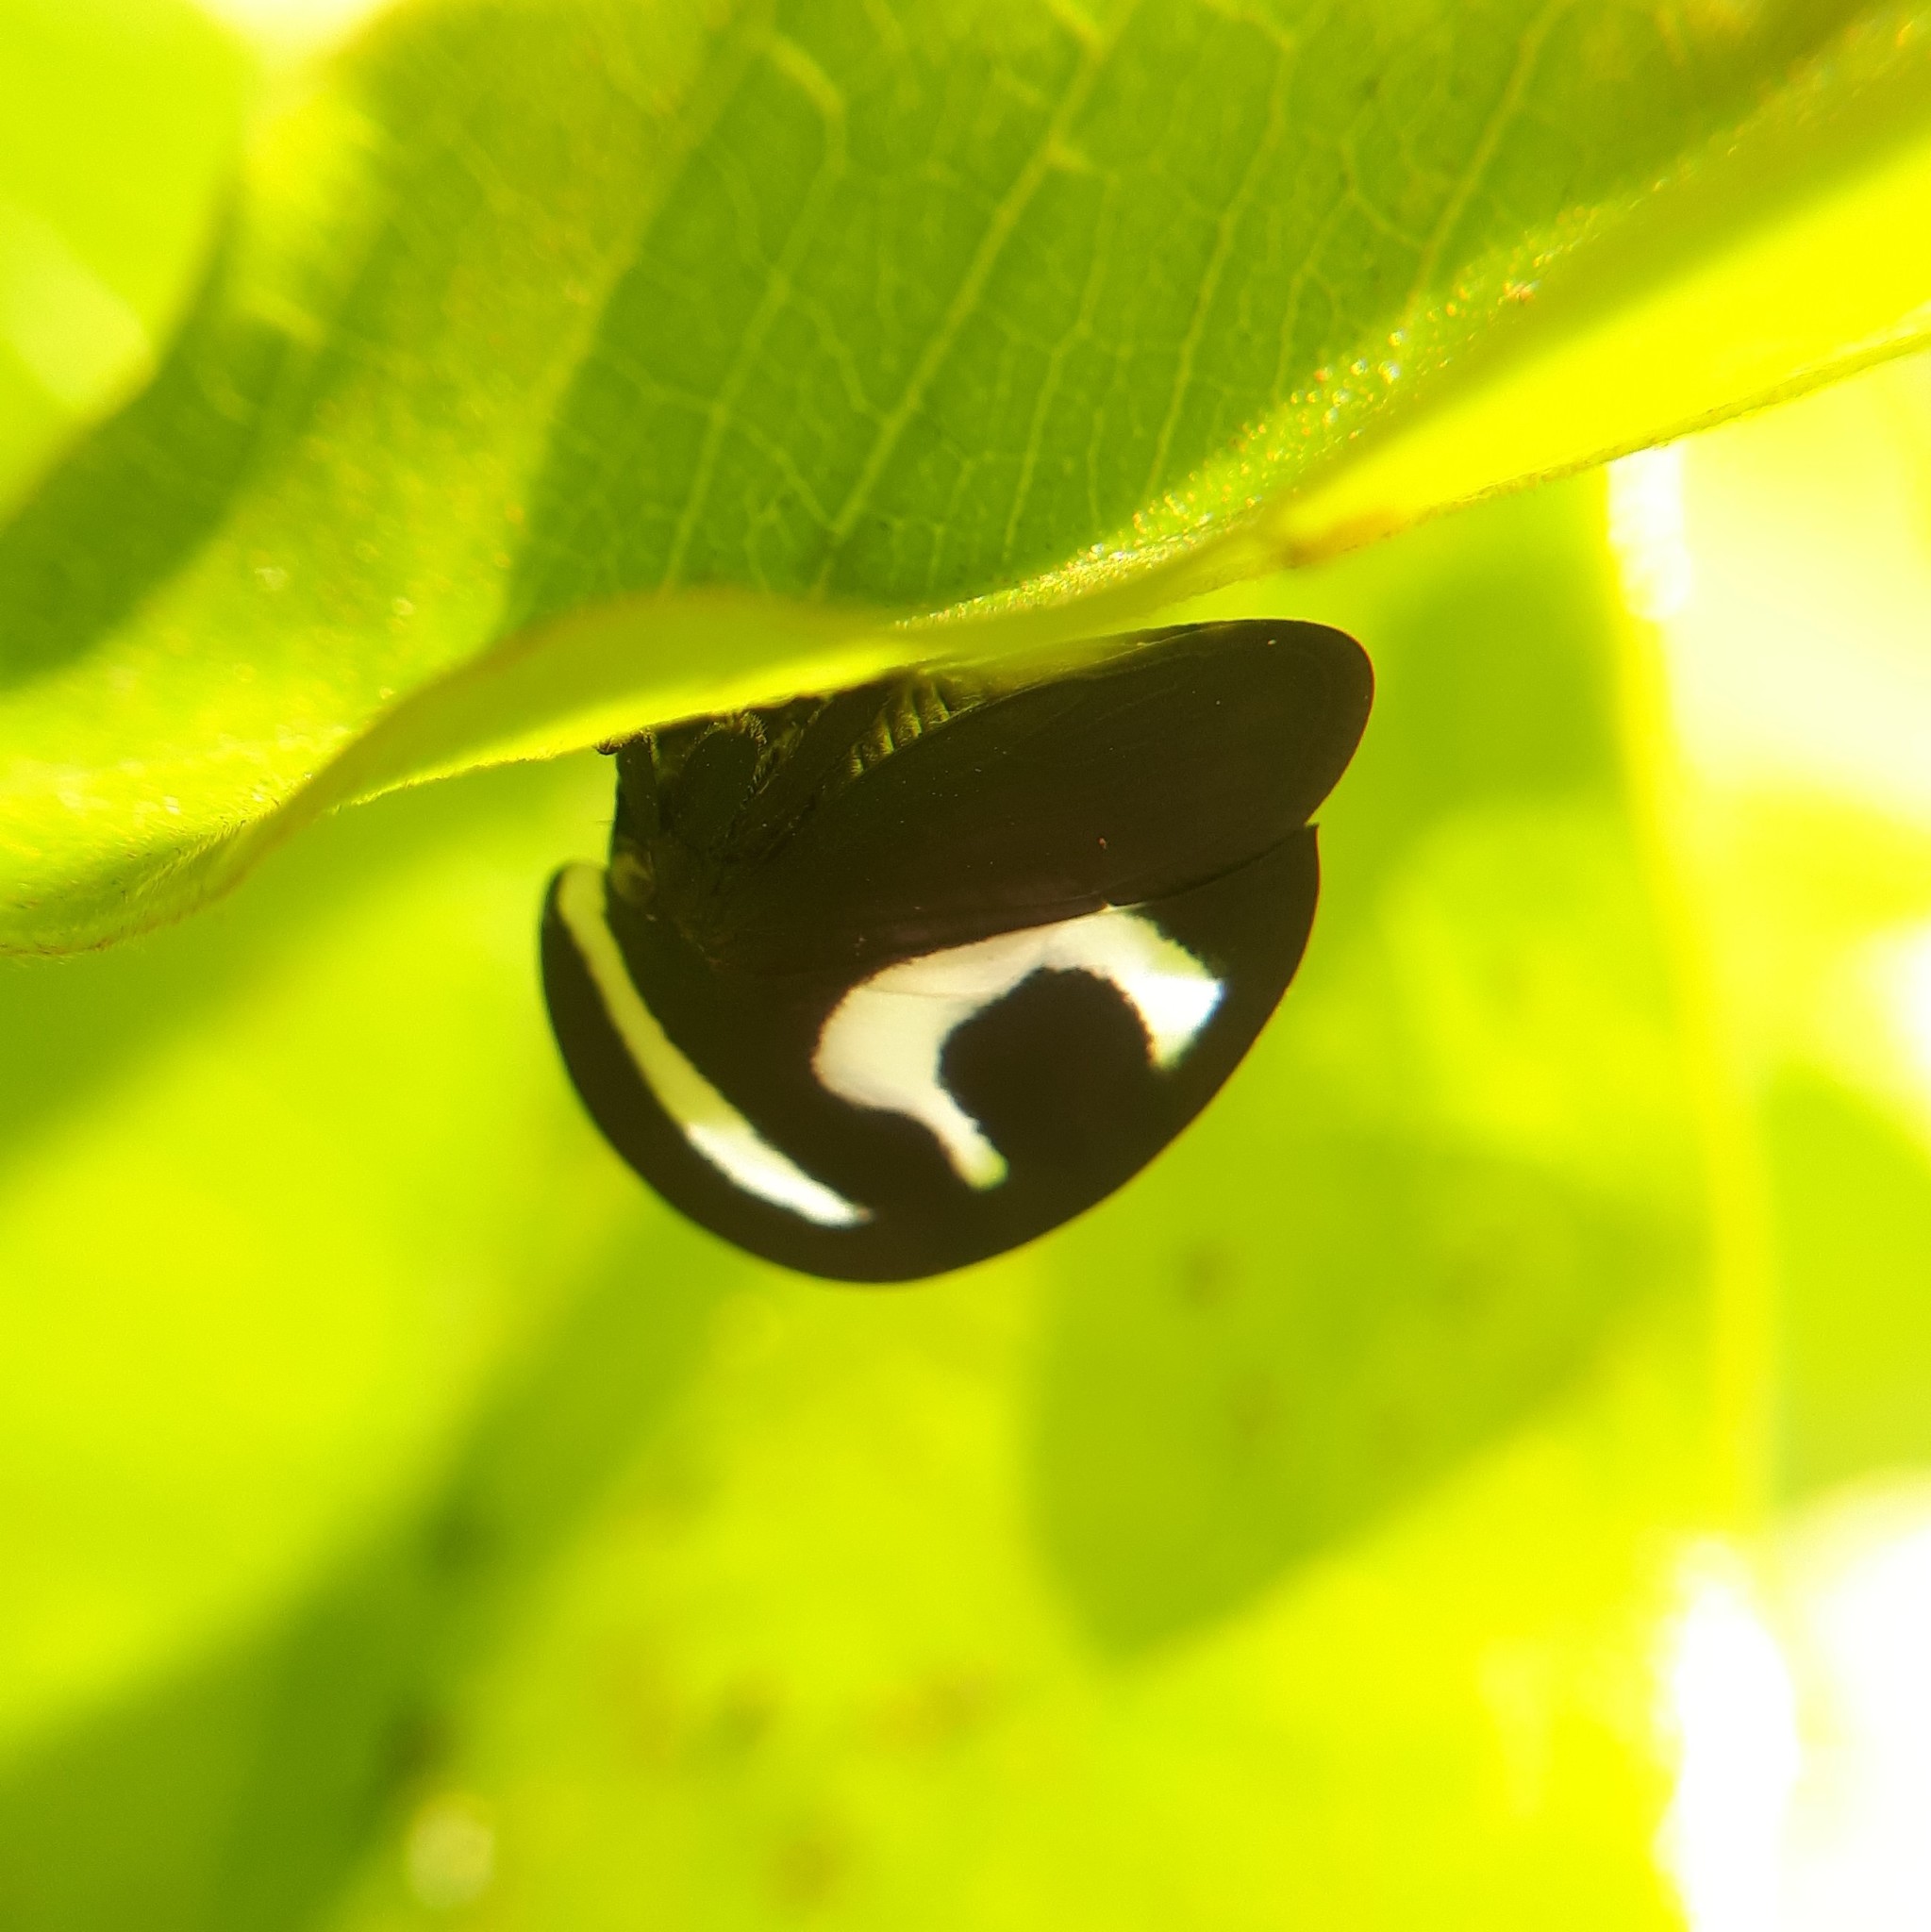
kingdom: Animalia
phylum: Arthropoda
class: Insecta
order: Hemiptera
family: Membracidae
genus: Membracis
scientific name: Membracis foliatafasciata
